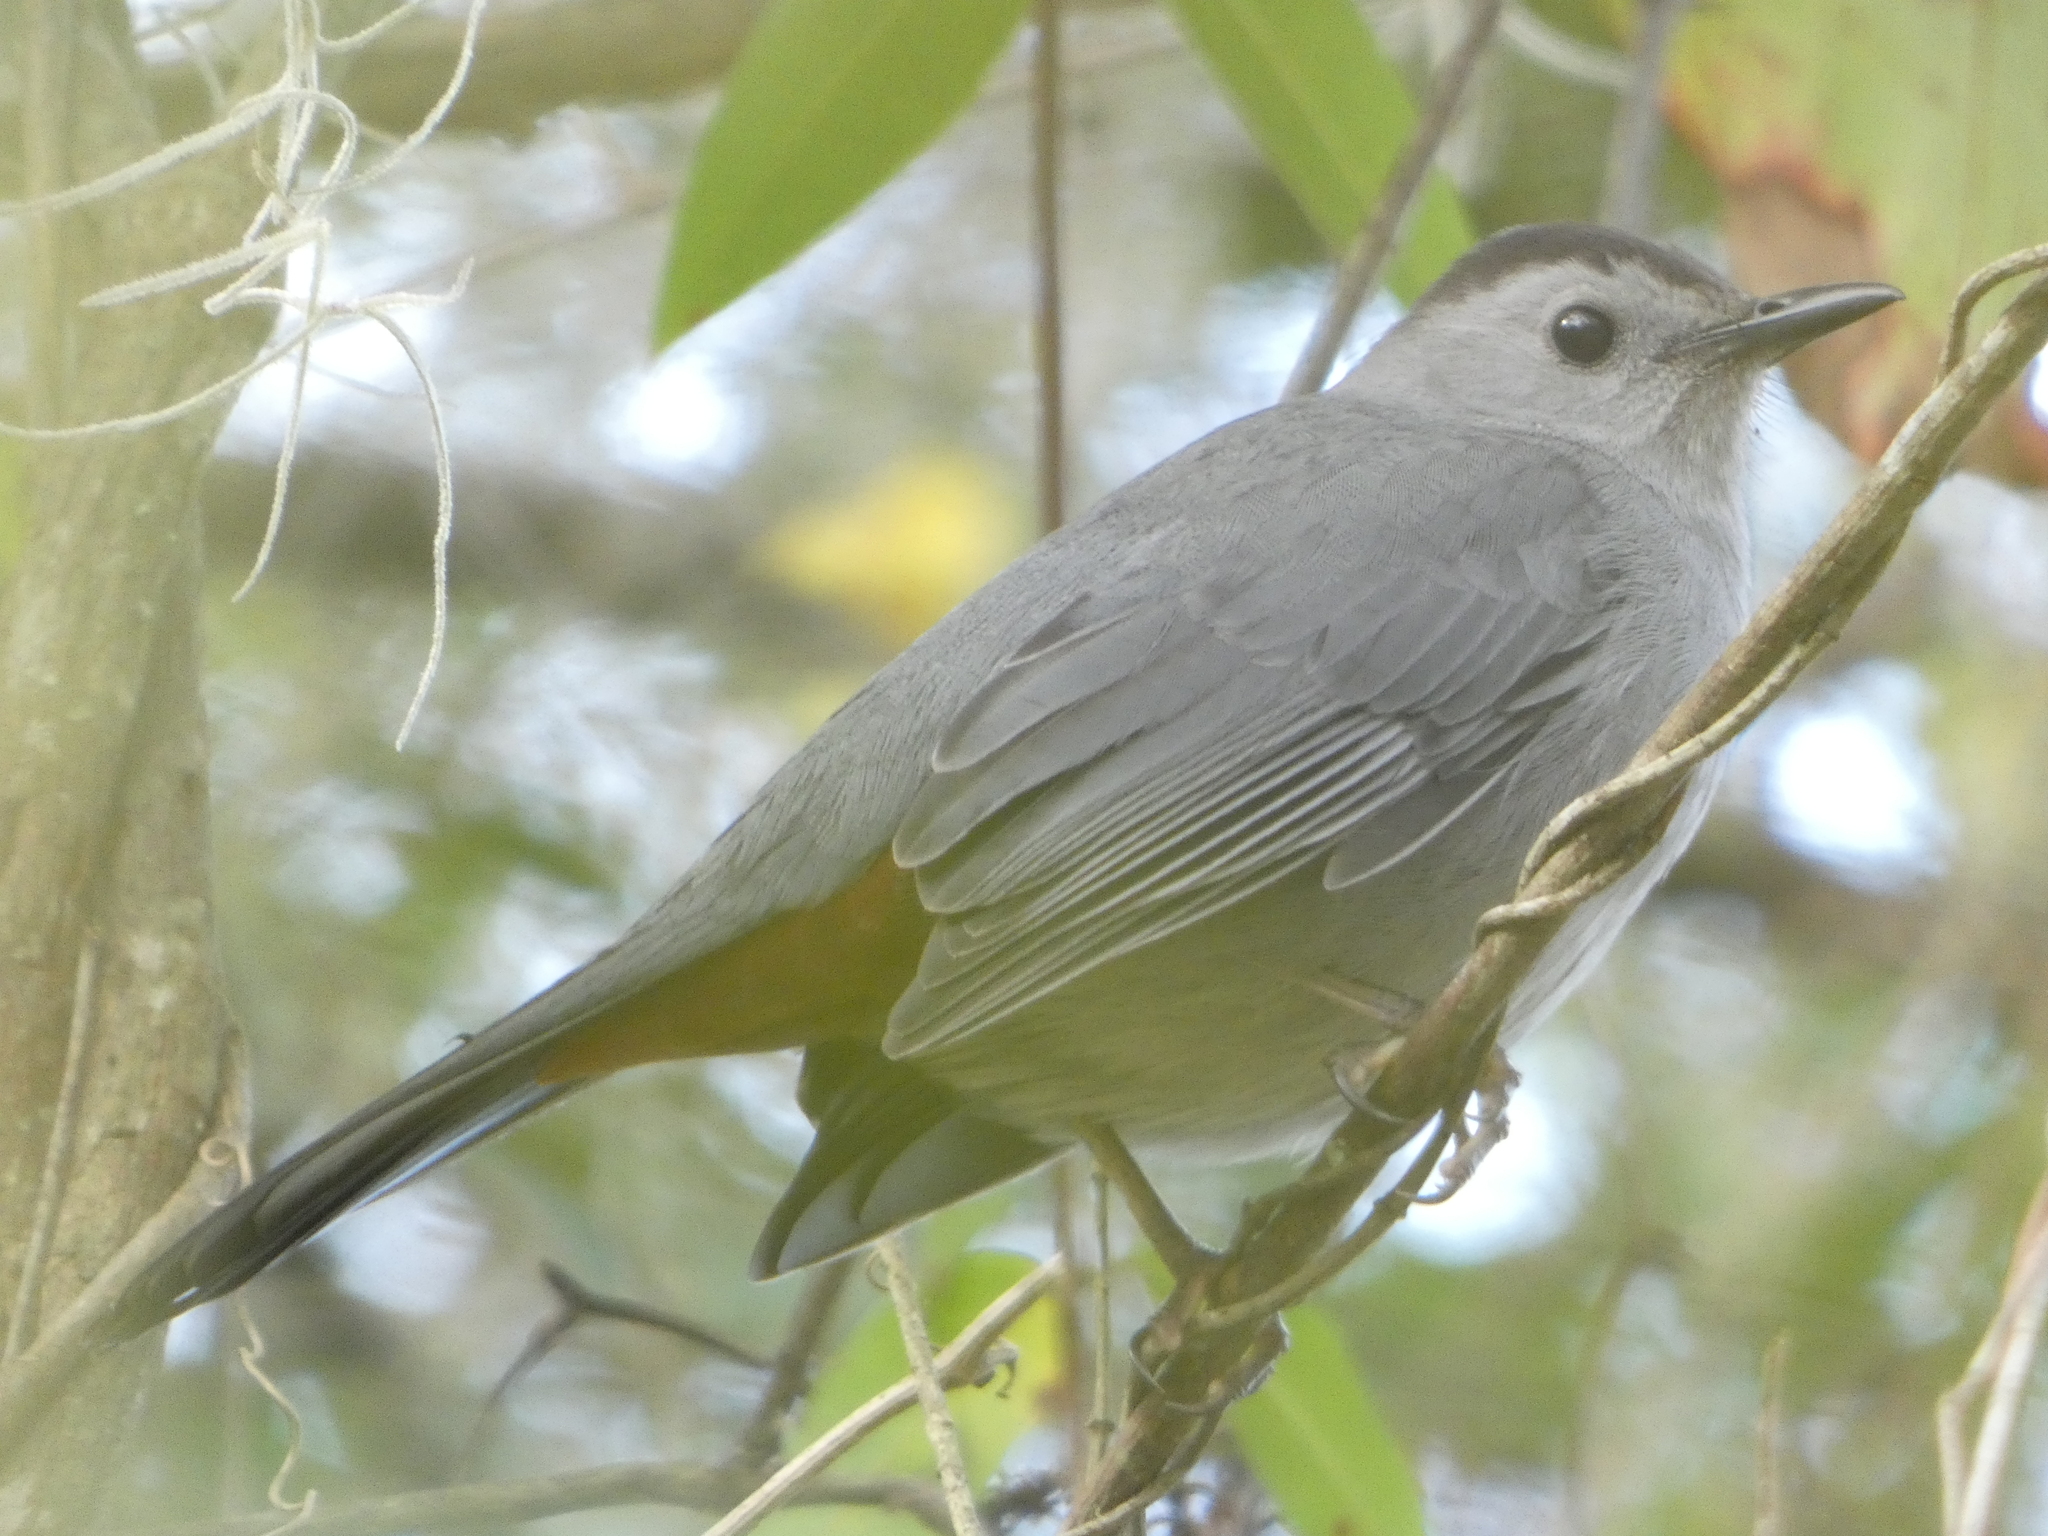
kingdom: Animalia
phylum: Chordata
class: Aves
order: Passeriformes
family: Mimidae
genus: Dumetella
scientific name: Dumetella carolinensis
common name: Gray catbird
